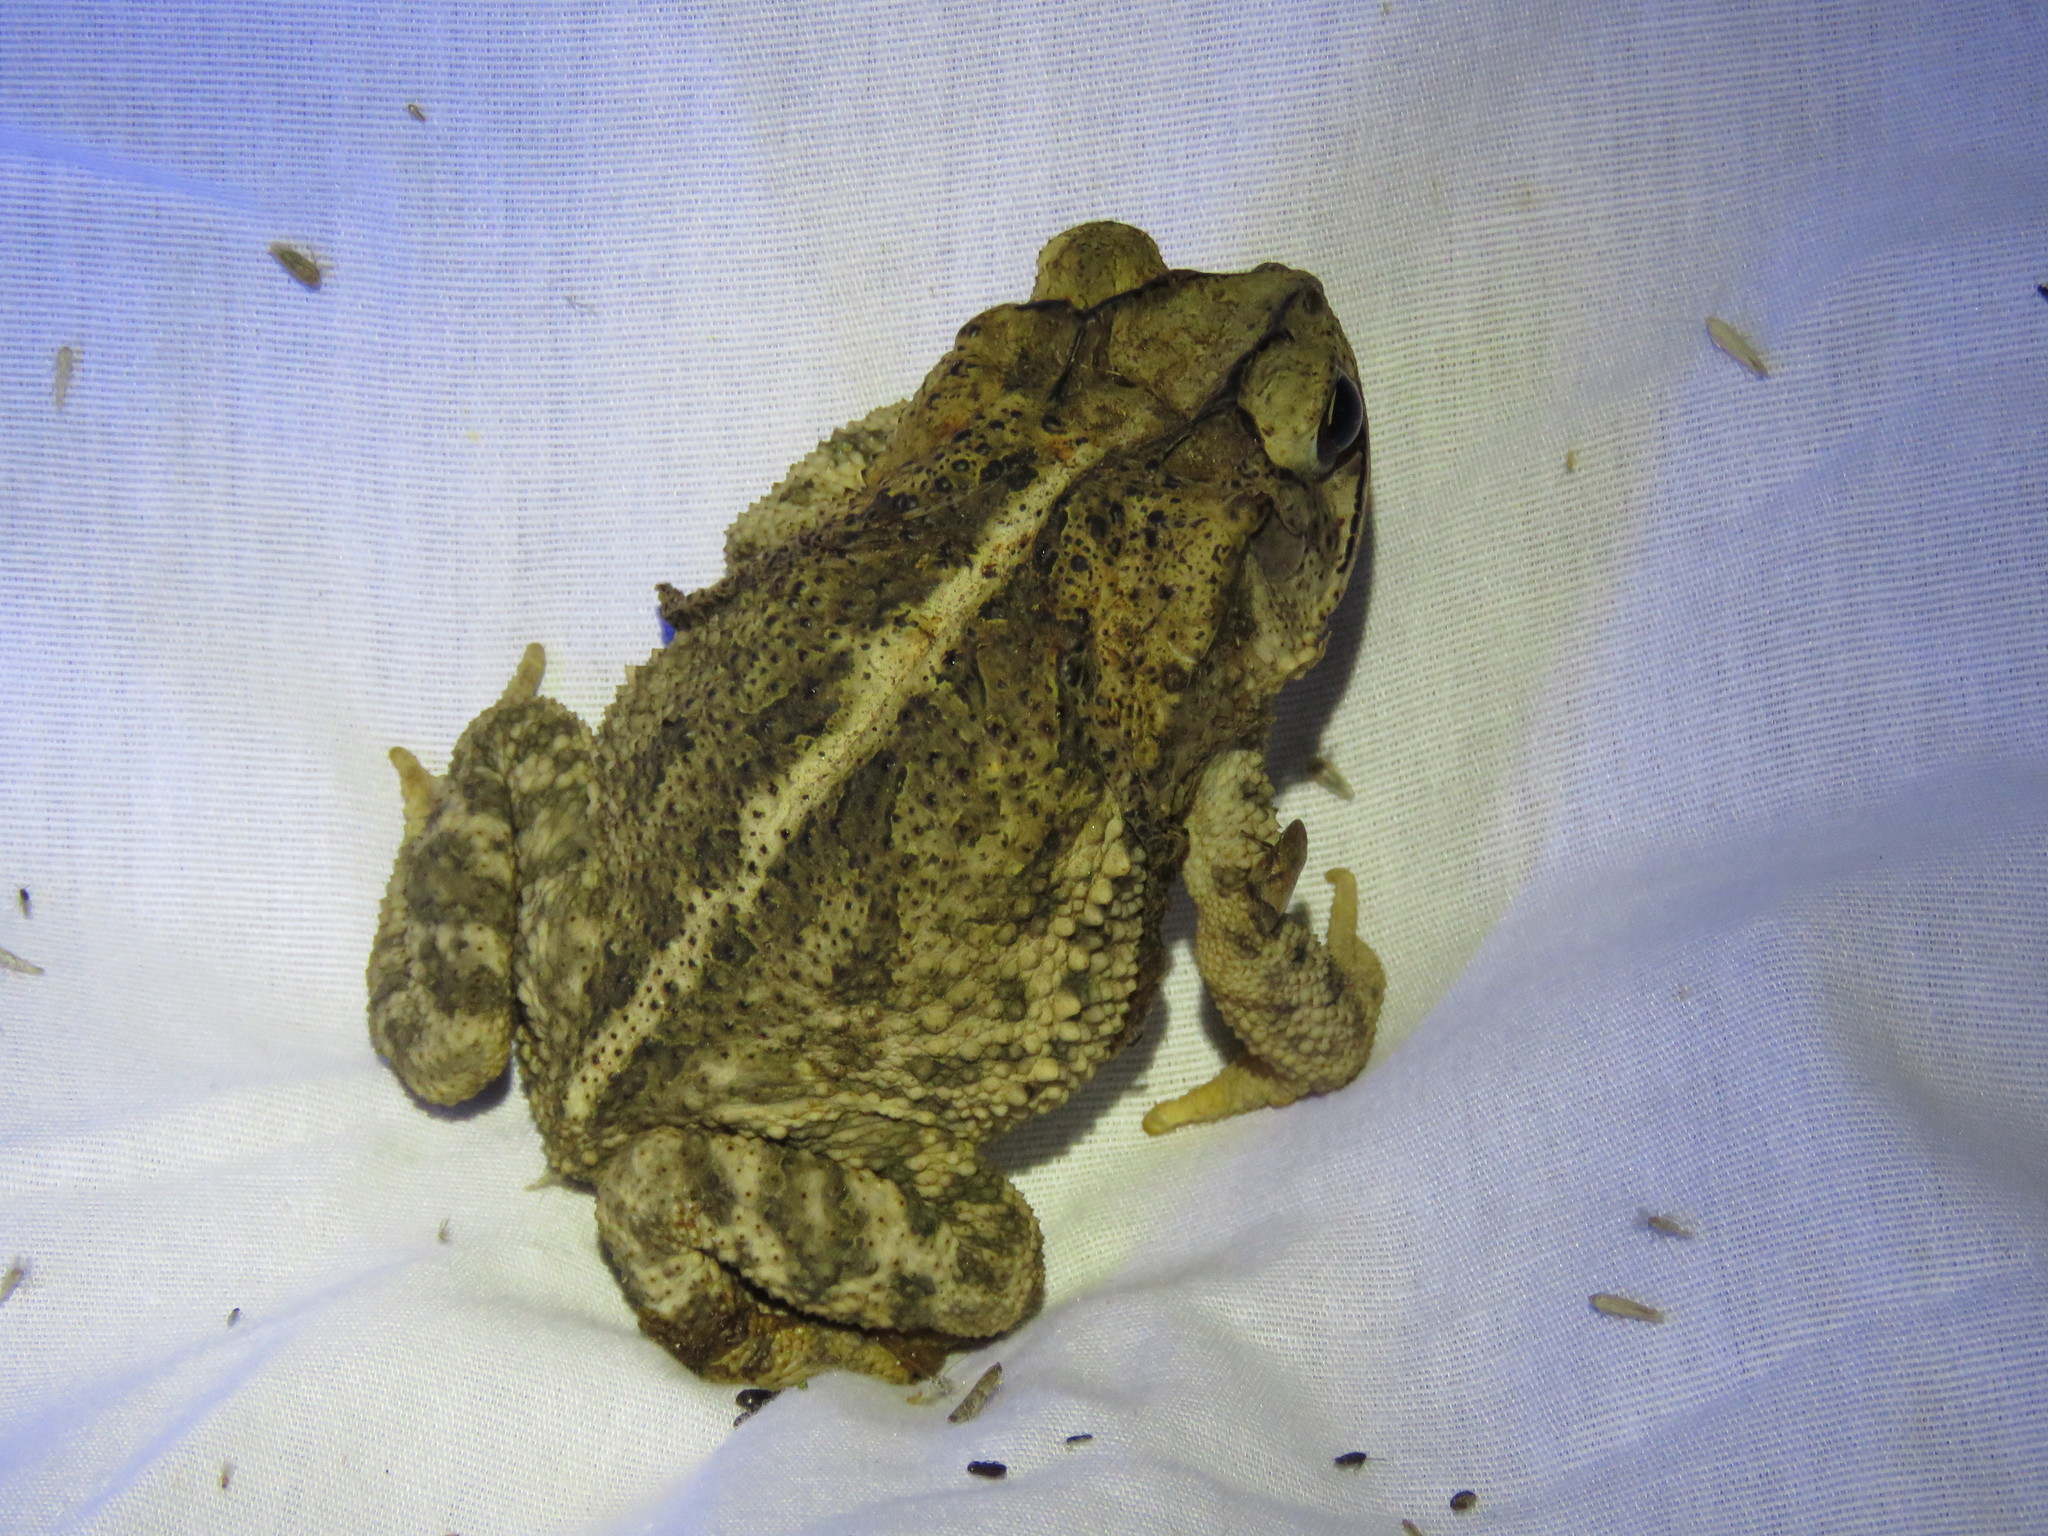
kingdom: Animalia
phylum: Chordata
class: Amphibia
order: Anura
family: Bufonidae
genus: Incilius
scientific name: Incilius nebulifer
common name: Gulf coast toad
